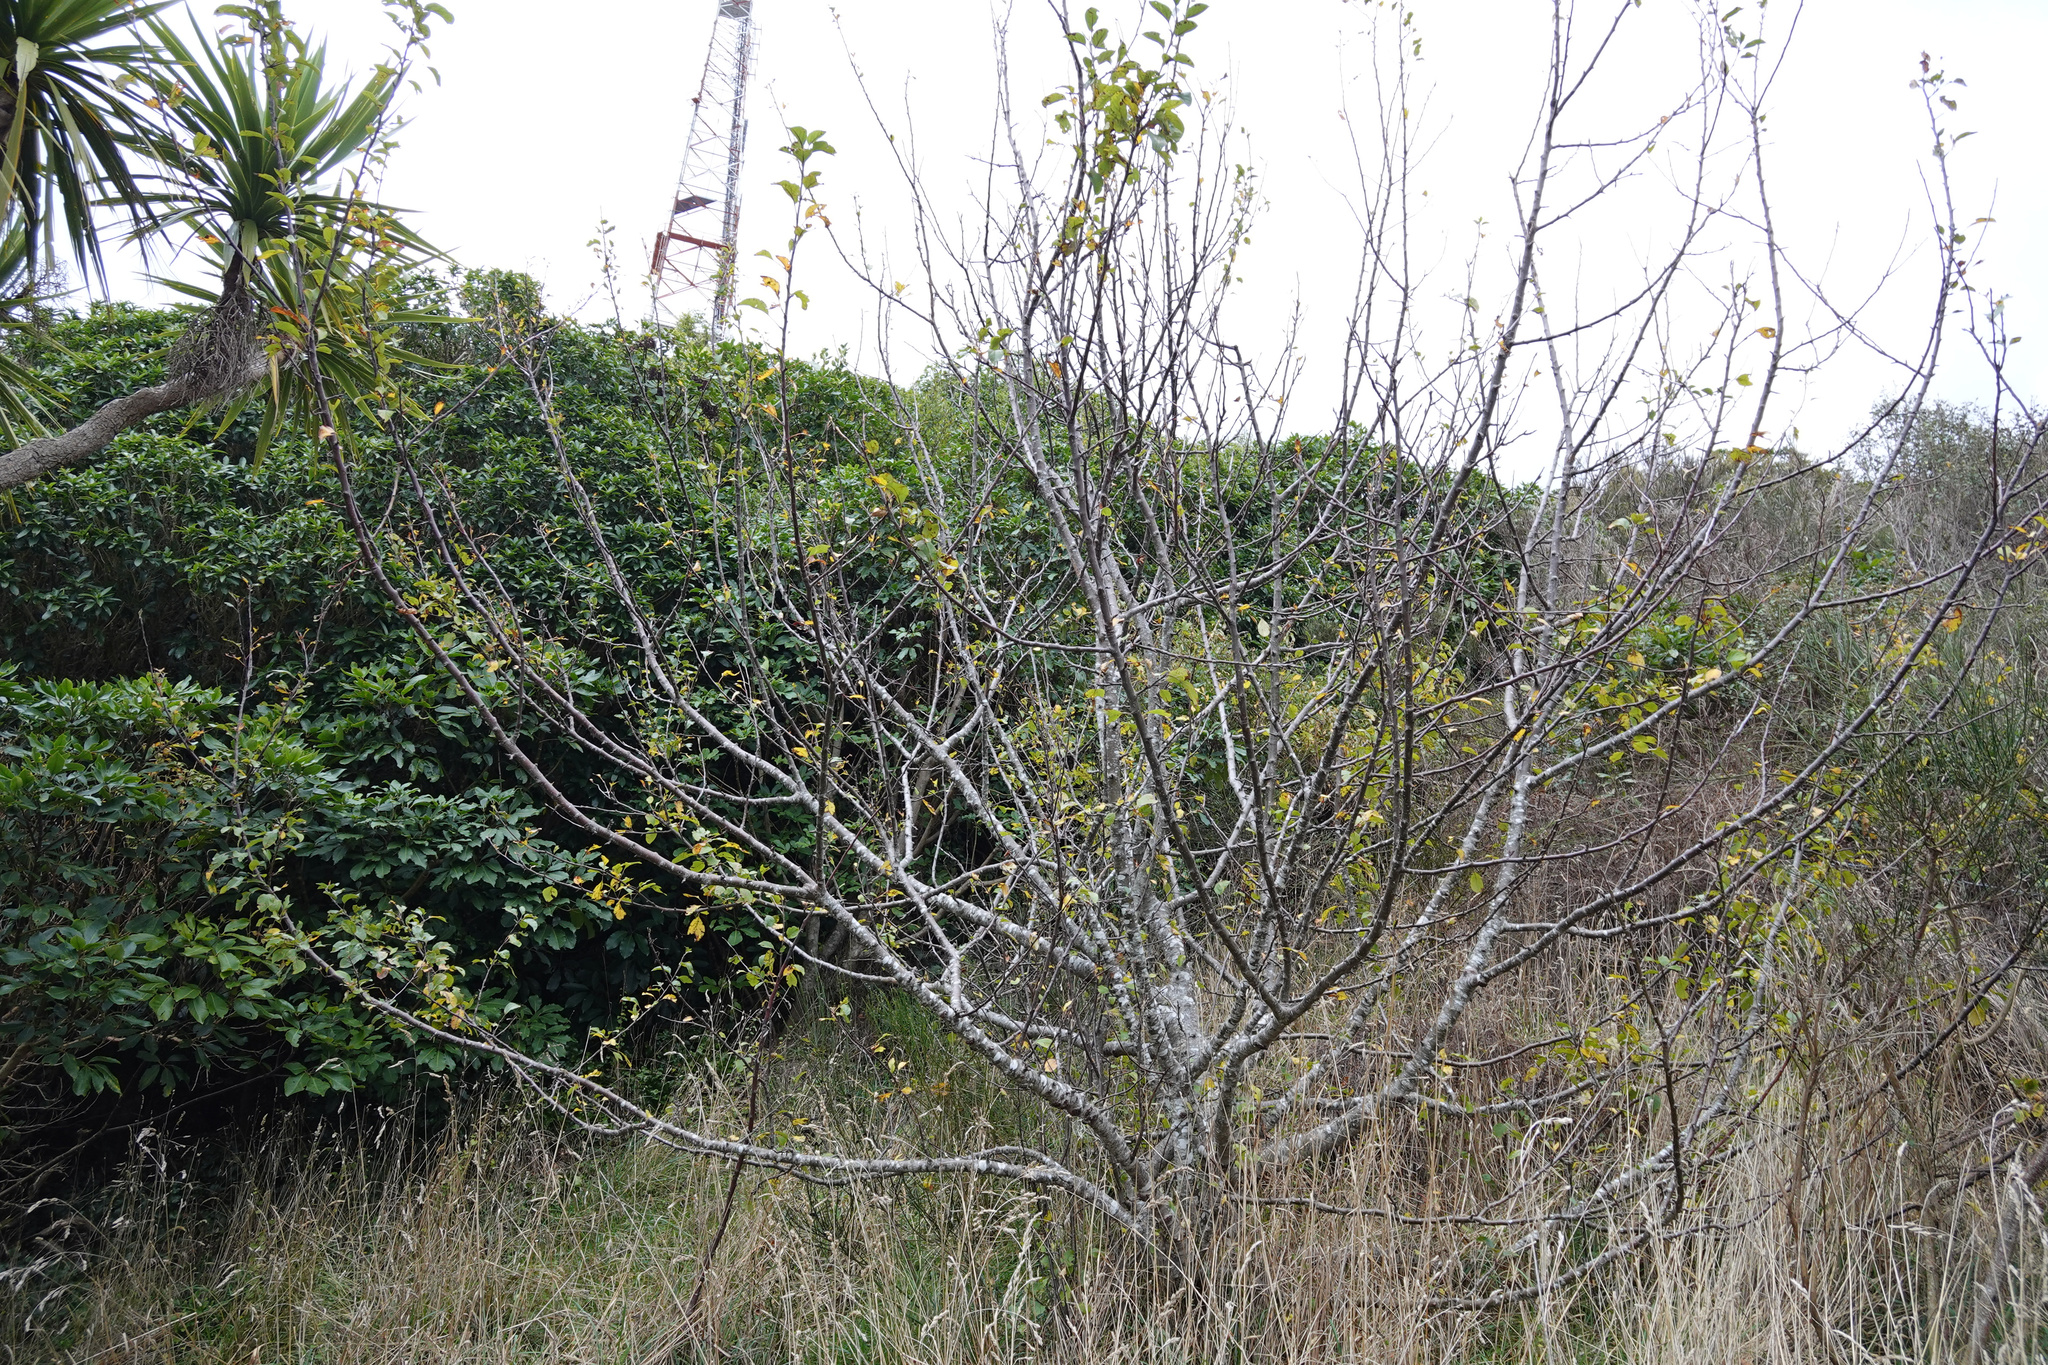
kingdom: Plantae
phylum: Tracheophyta
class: Magnoliopsida
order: Rosales
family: Rosaceae
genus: Malus
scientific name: Malus domestica
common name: Apple
